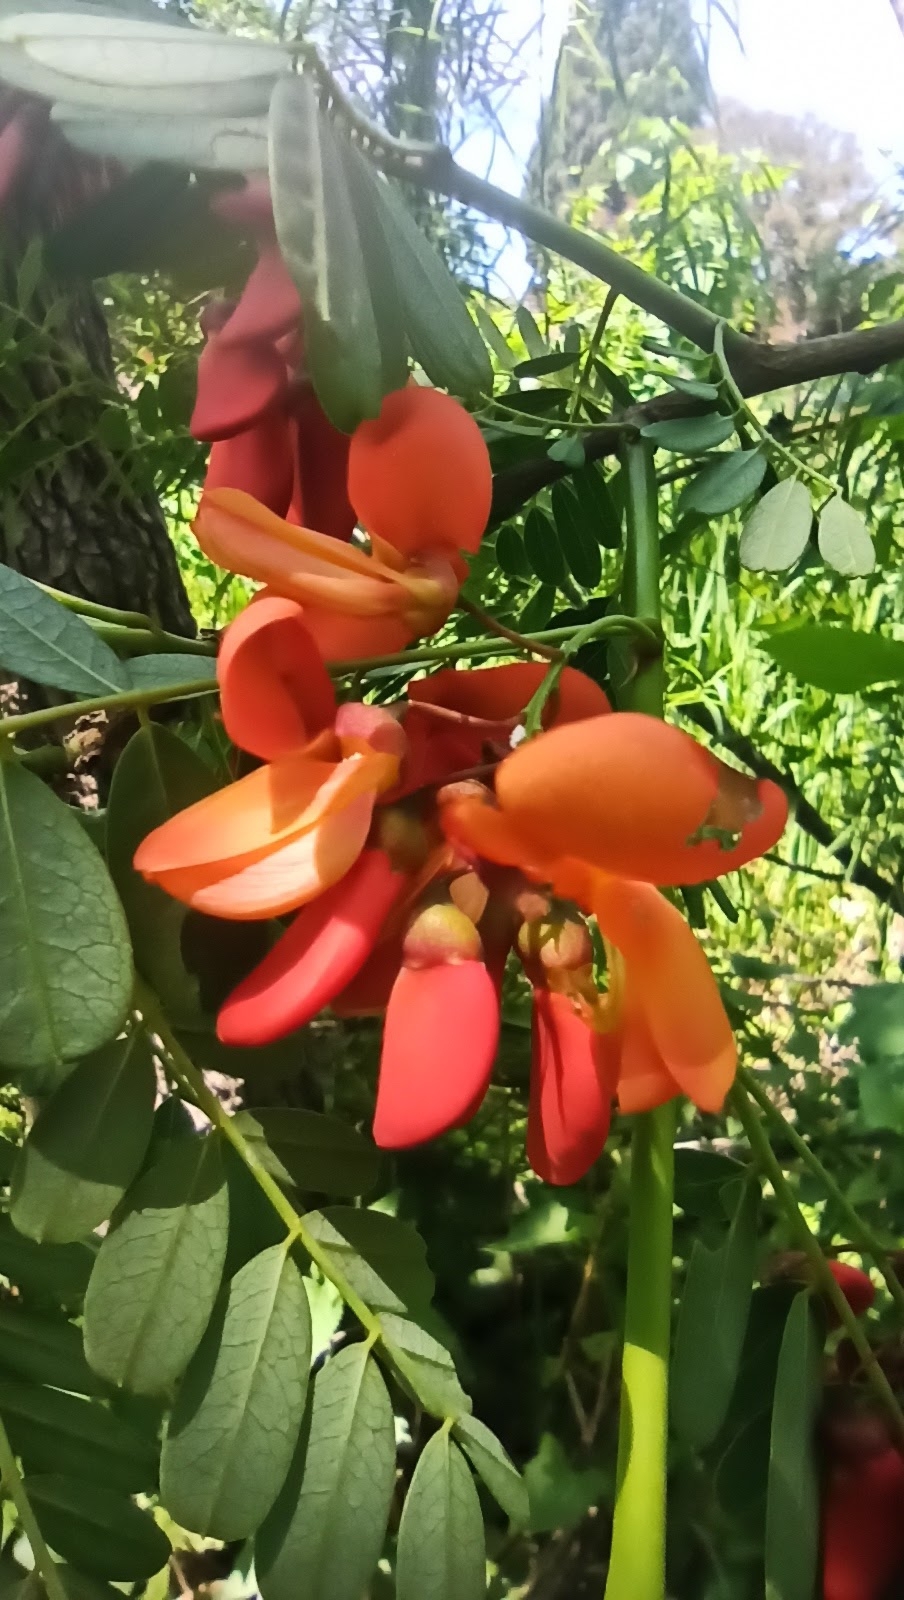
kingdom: Plantae
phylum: Tracheophyta
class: Magnoliopsida
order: Fabales
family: Fabaceae
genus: Sesbania
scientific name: Sesbania punicea
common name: Rattlebox
